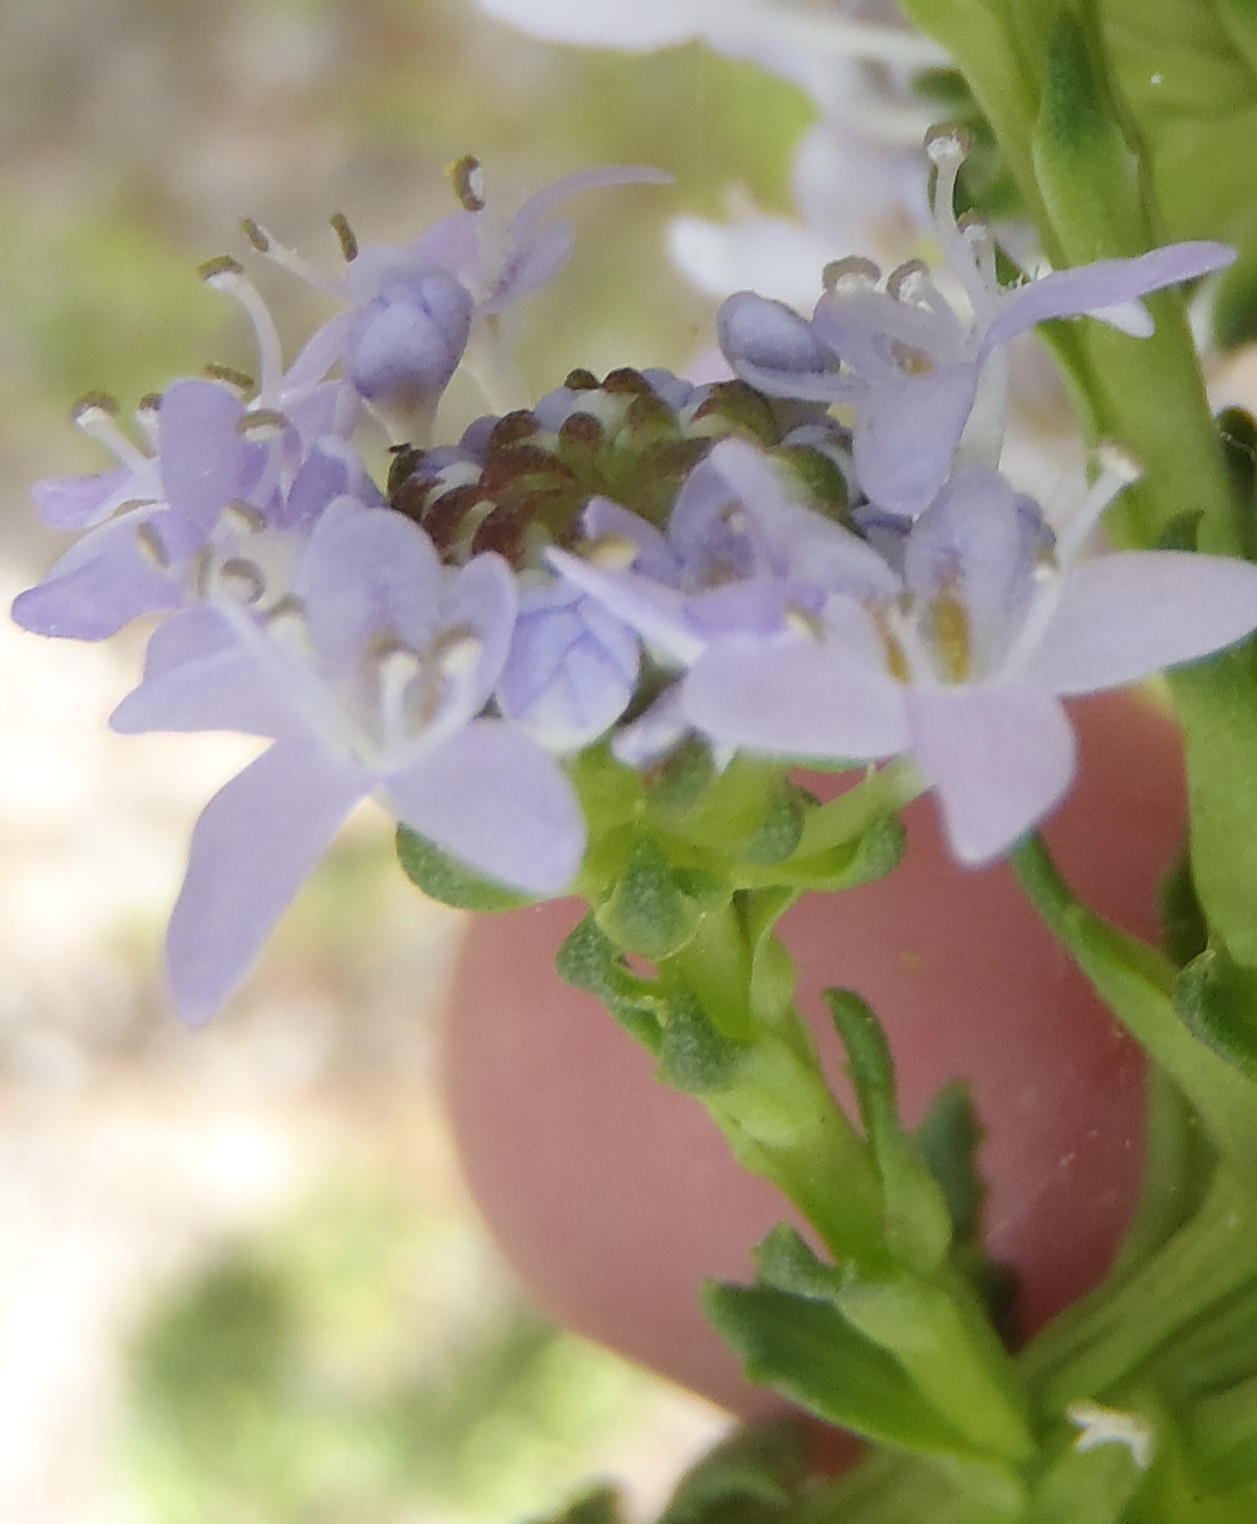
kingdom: Plantae
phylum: Tracheophyta
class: Magnoliopsida
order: Lamiales
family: Scrophulariaceae
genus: Pseudoselago
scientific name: Pseudoselago spuria
